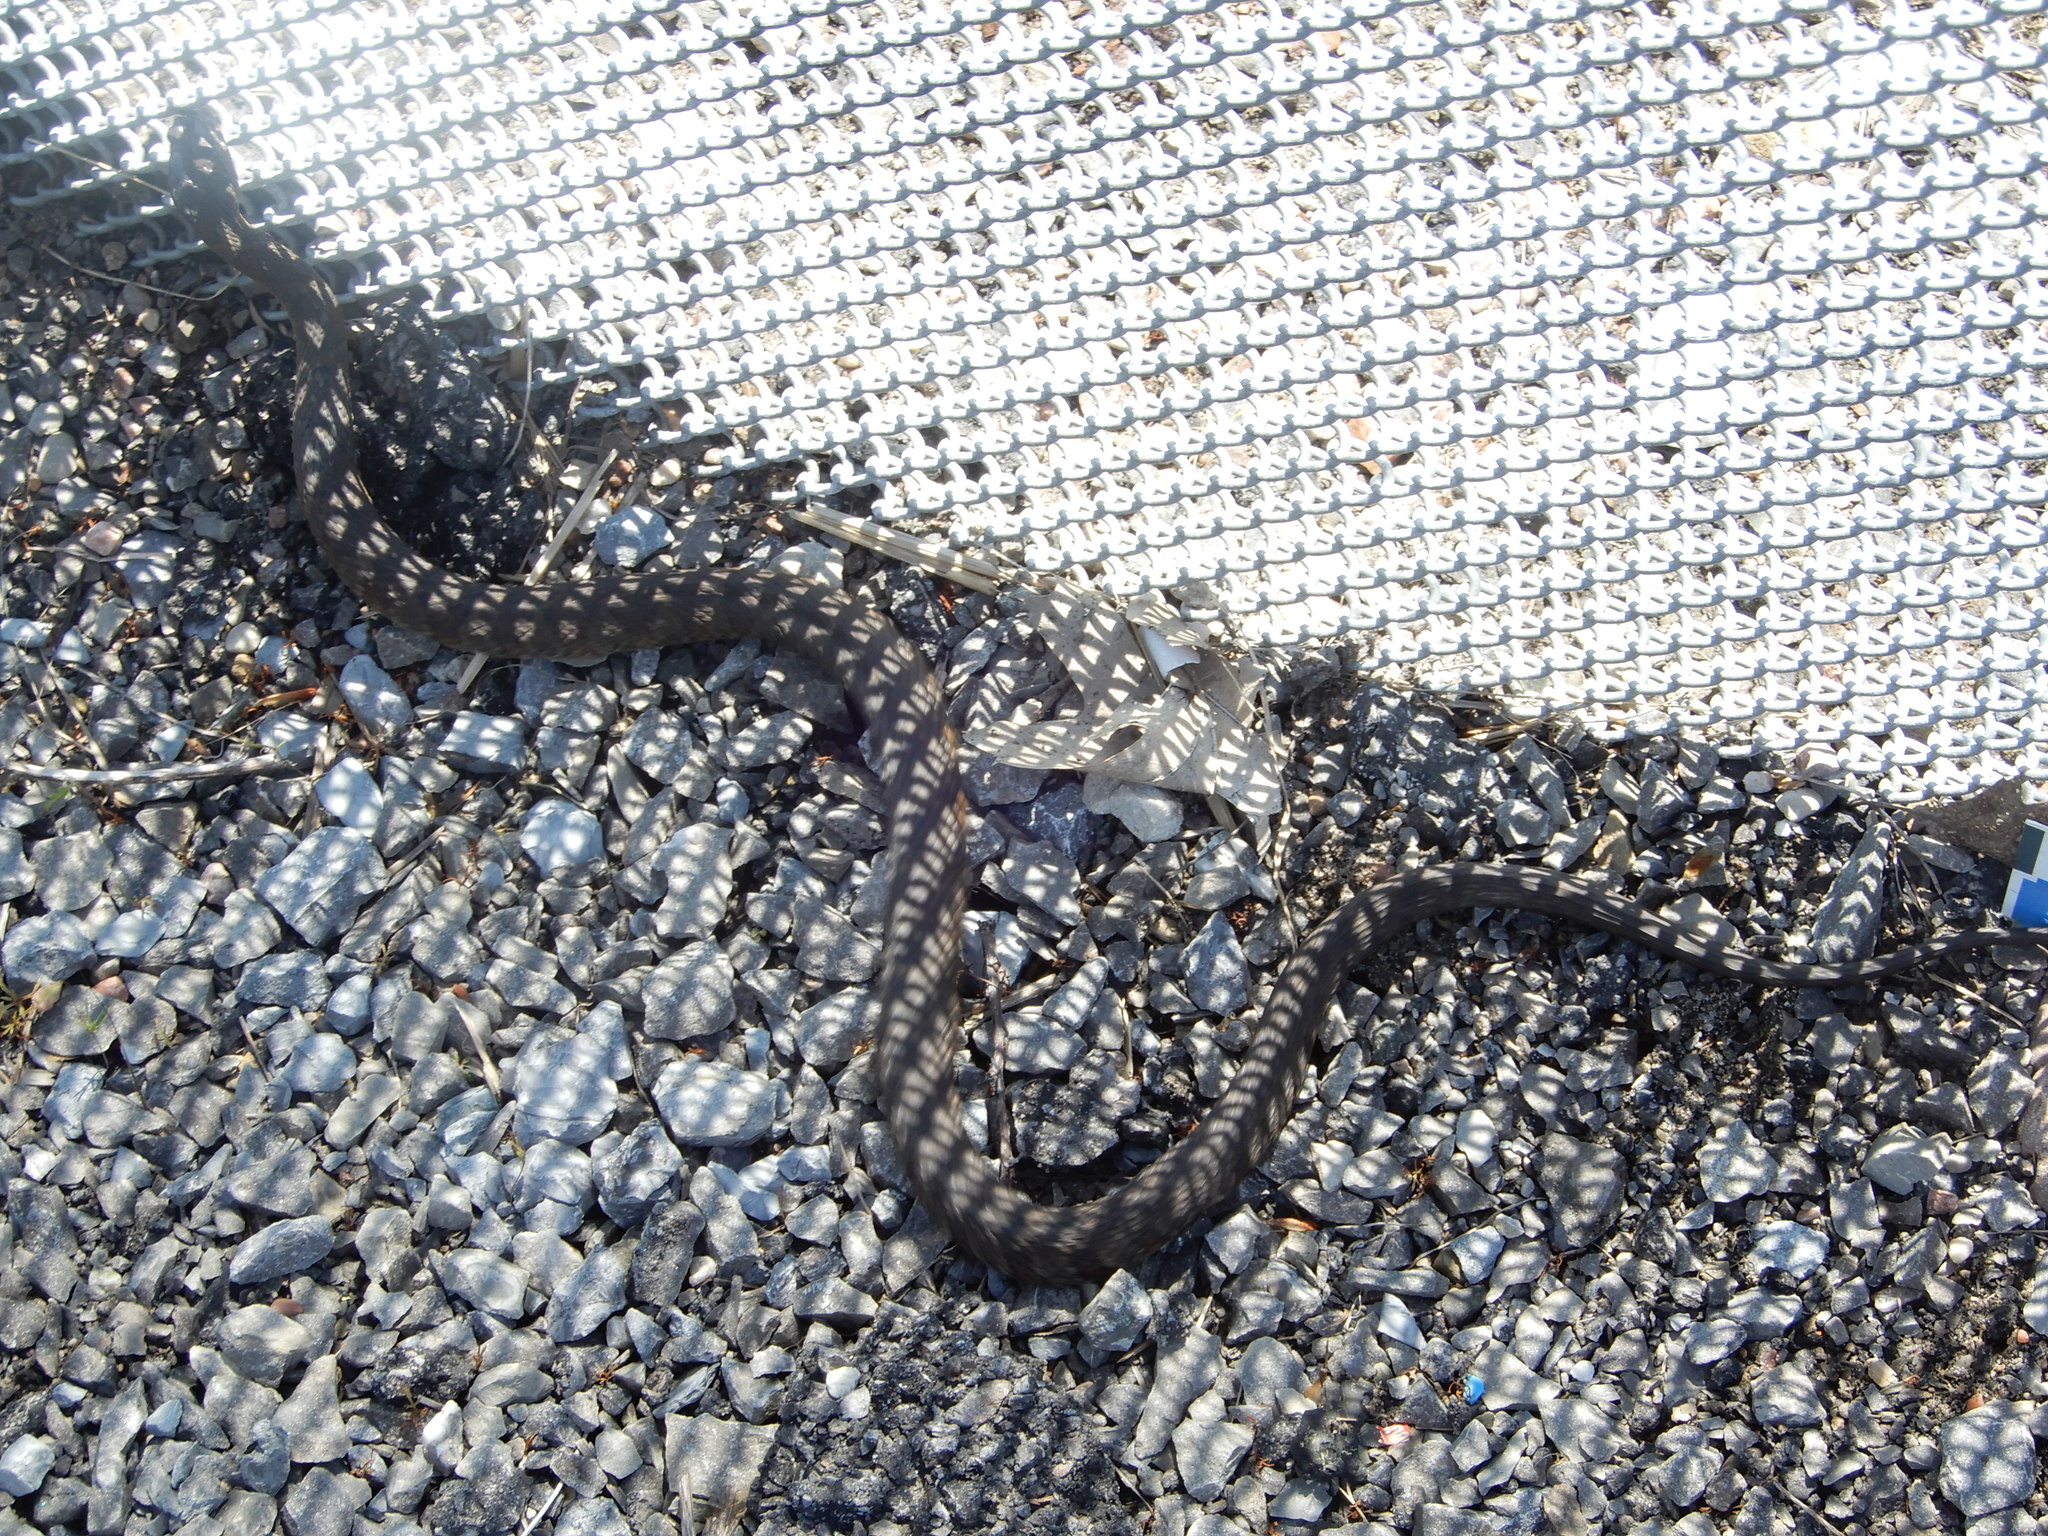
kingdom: Animalia
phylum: Chordata
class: Squamata
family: Colubridae
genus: Nerodia
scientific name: Nerodia sipedon
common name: Northern water snake
